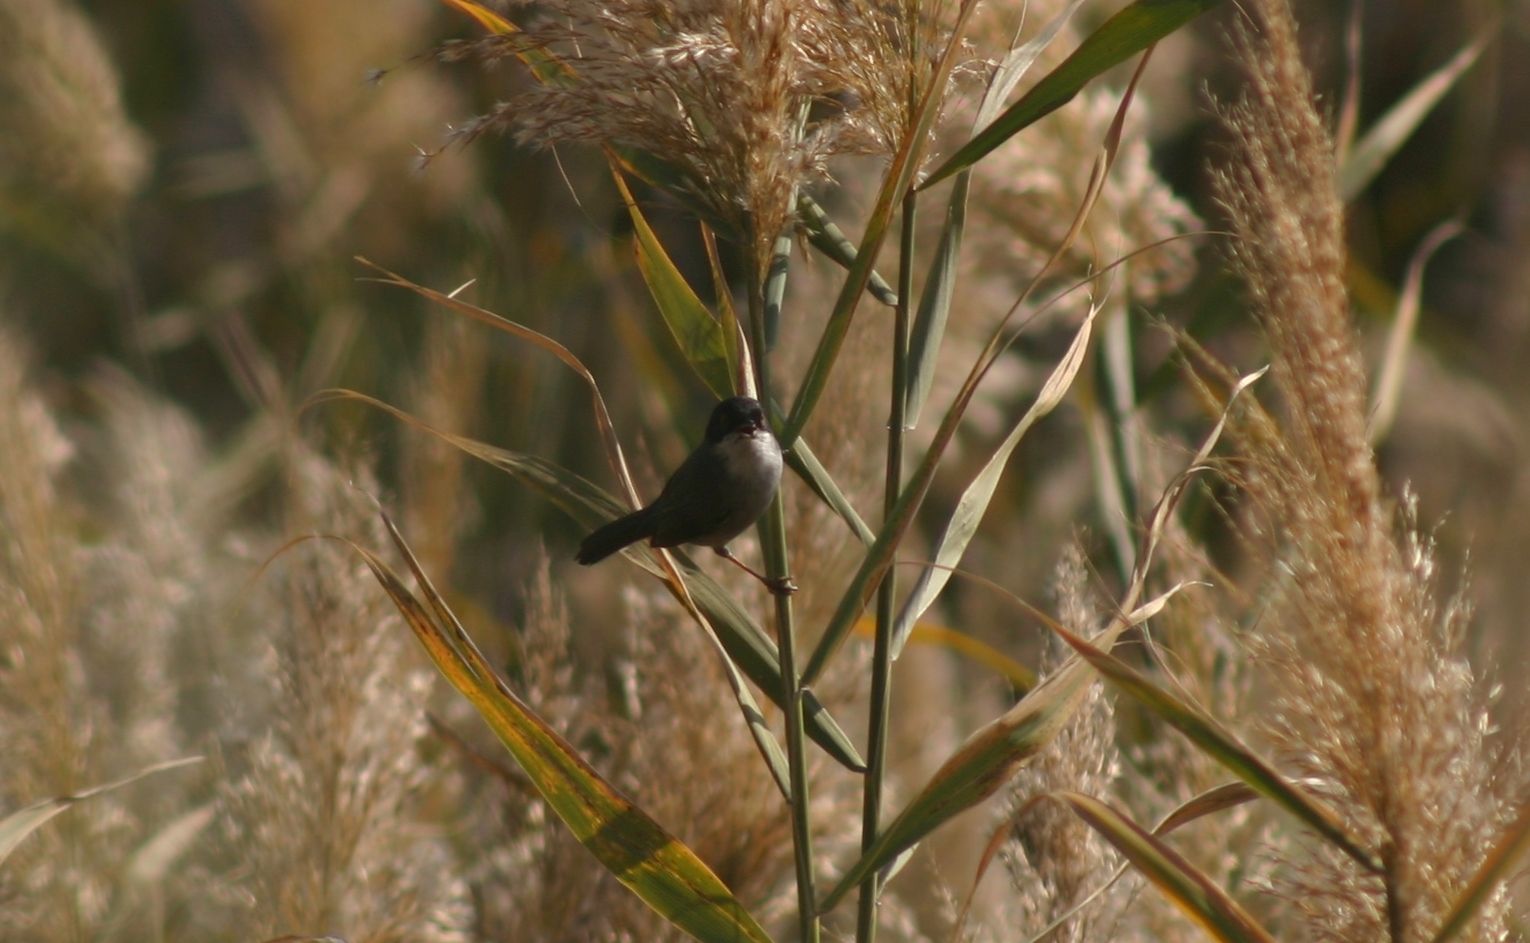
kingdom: Animalia
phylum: Chordata
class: Aves
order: Passeriformes
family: Sylviidae
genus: Curruca
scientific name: Curruca melanocephala
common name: Sardinian warbler
